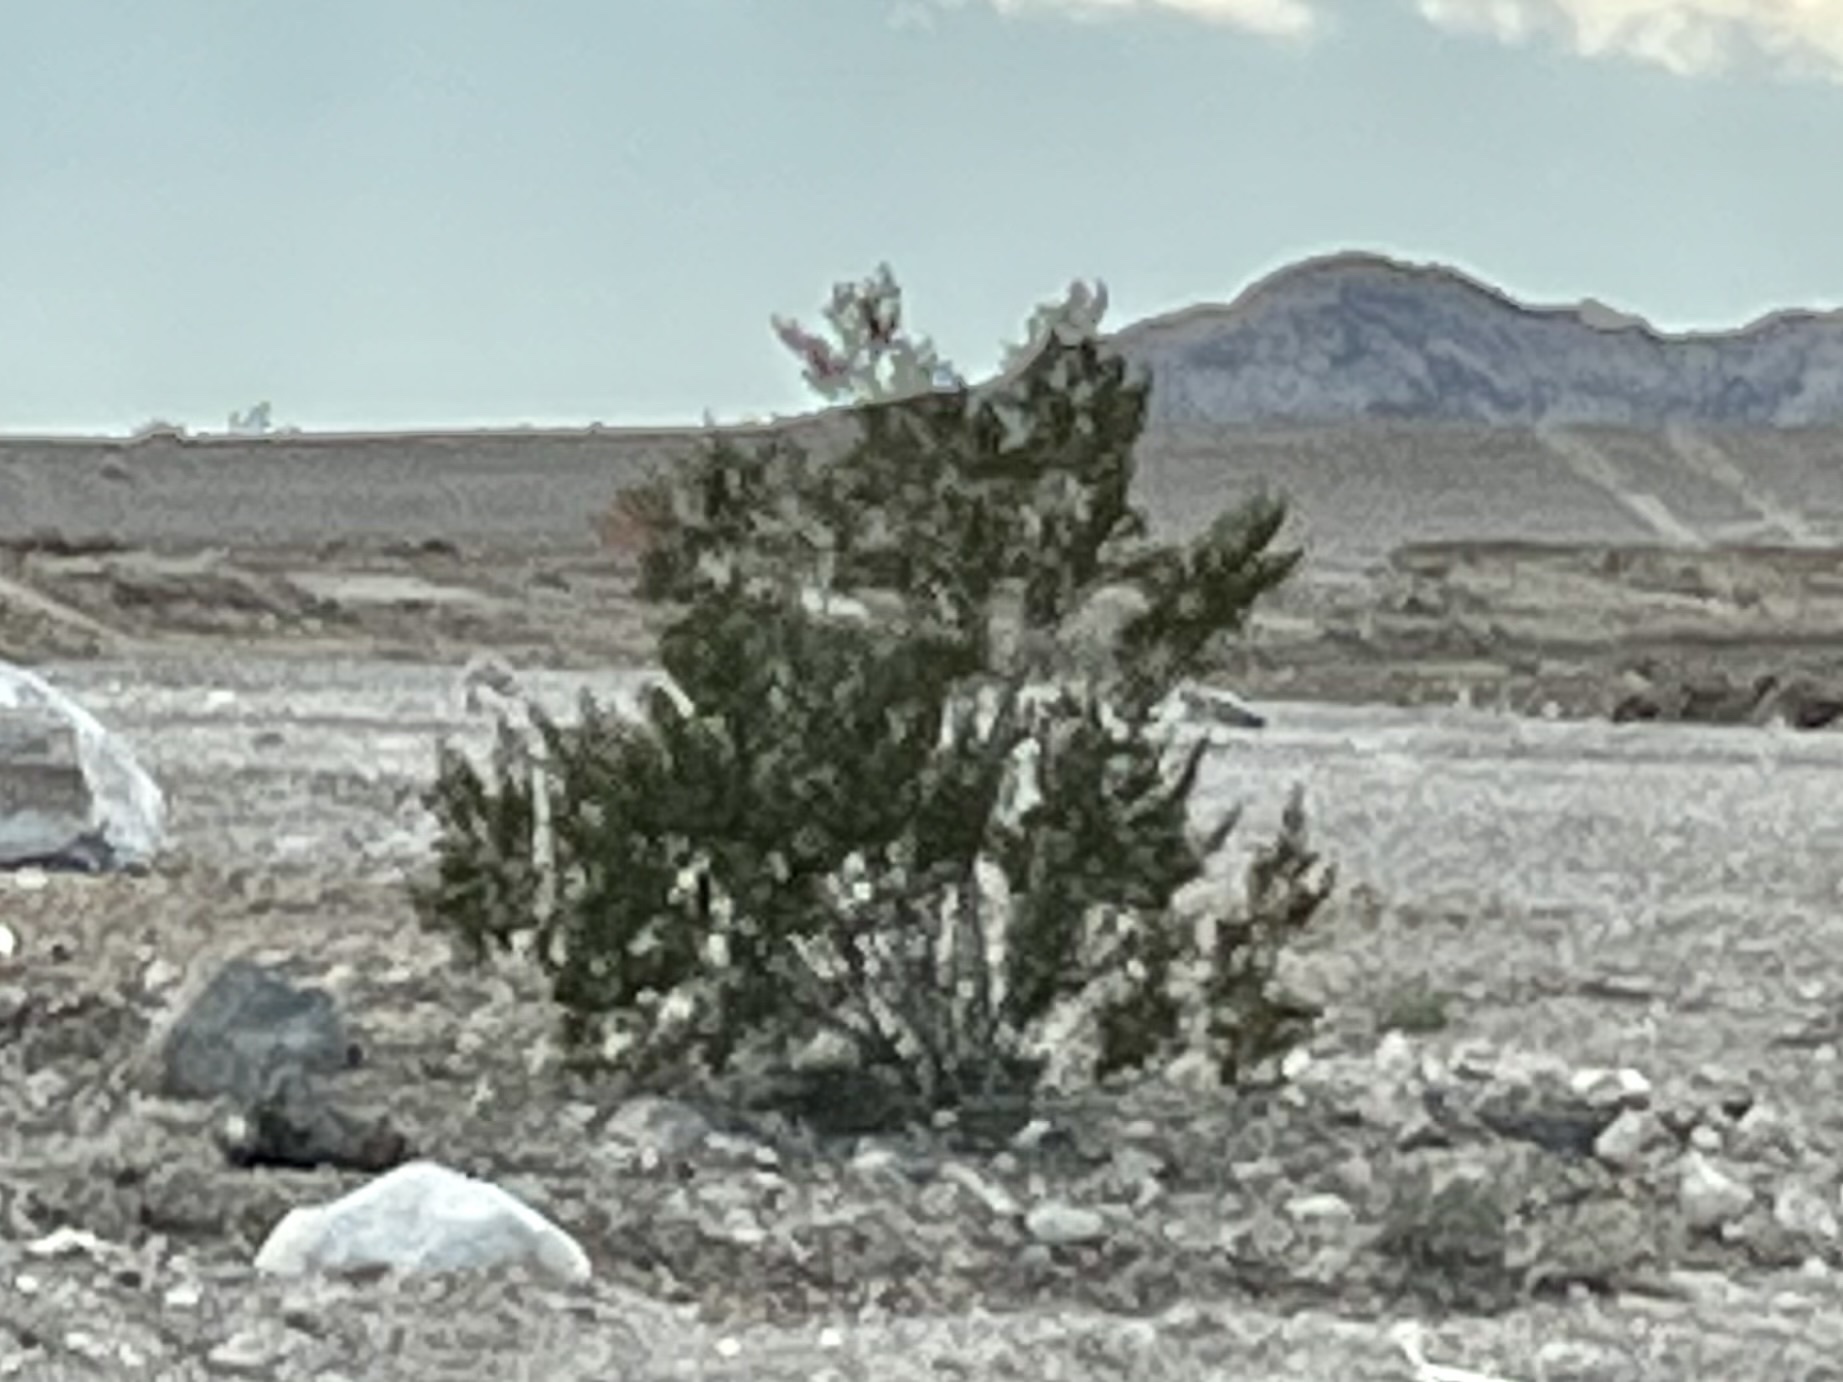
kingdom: Plantae
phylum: Tracheophyta
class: Magnoliopsida
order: Zygophyllales
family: Zygophyllaceae
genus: Larrea
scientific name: Larrea tridentata
